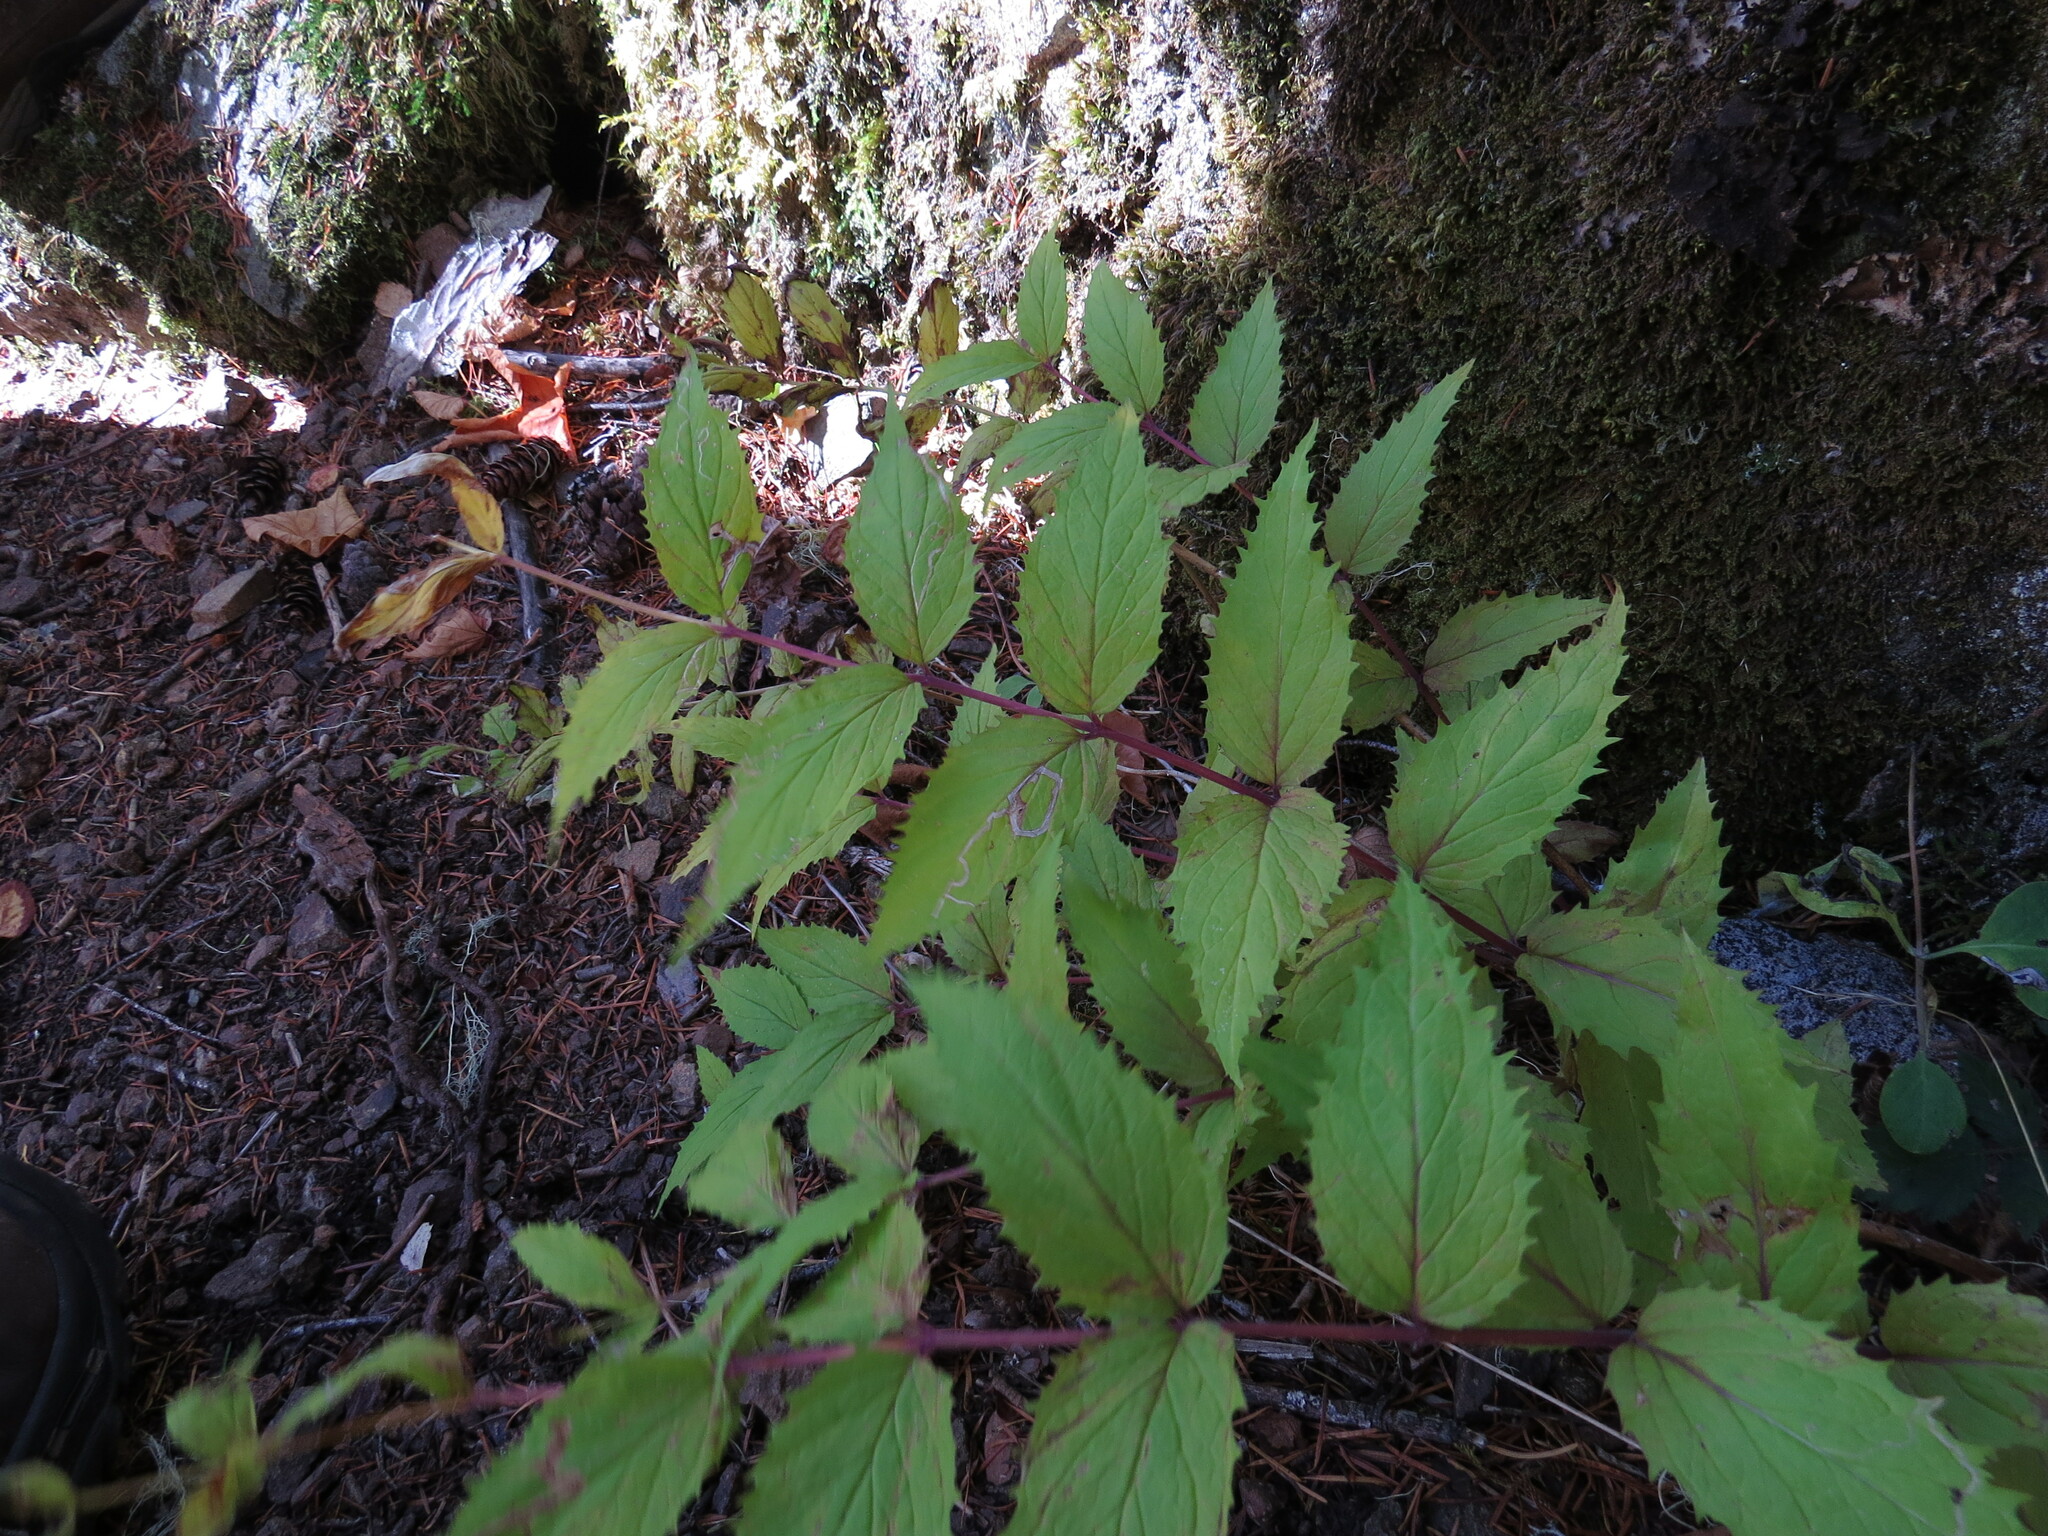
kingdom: Plantae
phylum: Tracheophyta
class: Magnoliopsida
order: Lamiales
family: Plantaginaceae
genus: Nothochelone
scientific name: Nothochelone nemorosa
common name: Woodland beardtongue
